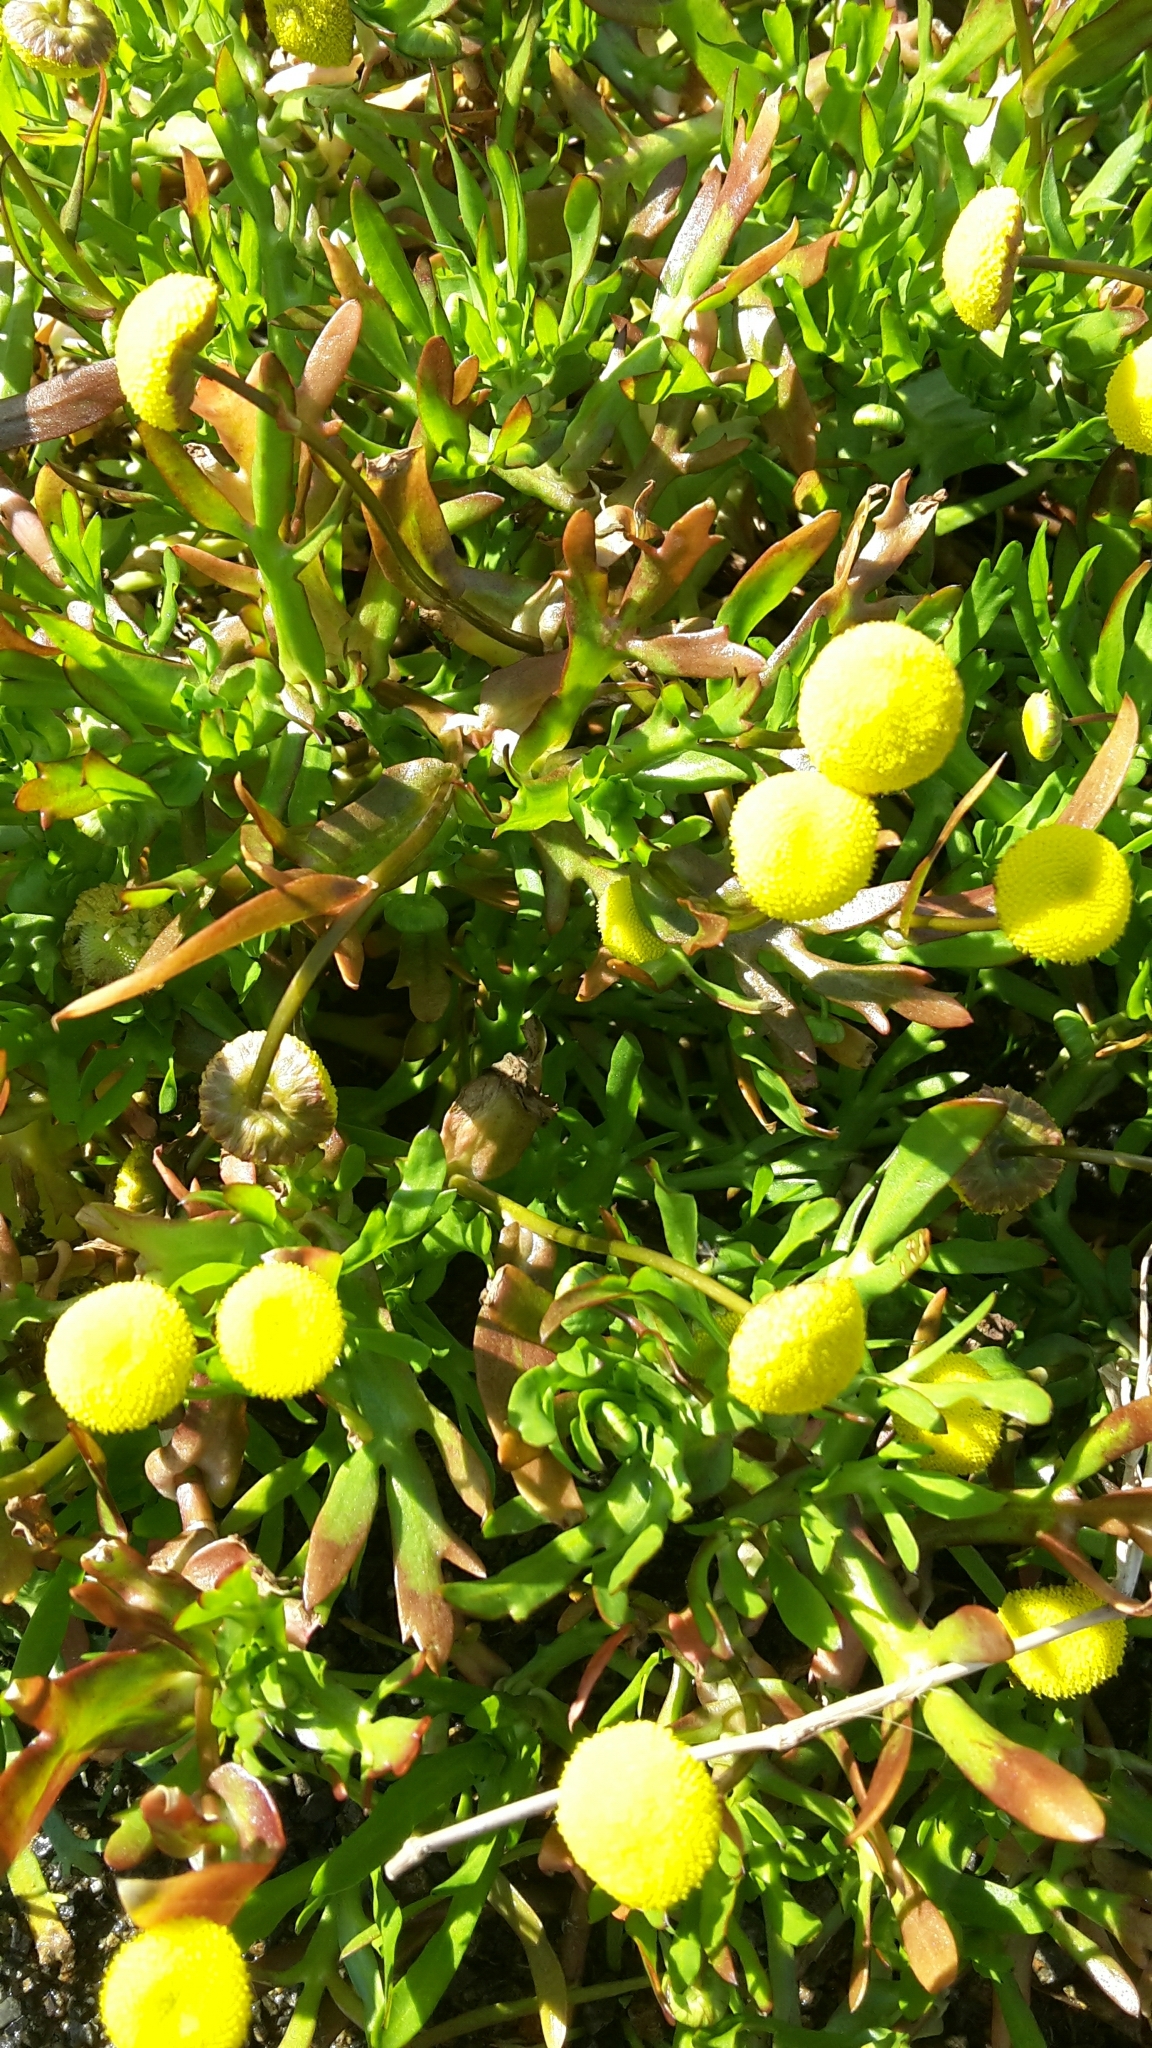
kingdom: Plantae
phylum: Tracheophyta
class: Magnoliopsida
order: Asterales
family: Asteraceae
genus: Cotula
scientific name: Cotula coronopifolia
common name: Buttonweed
